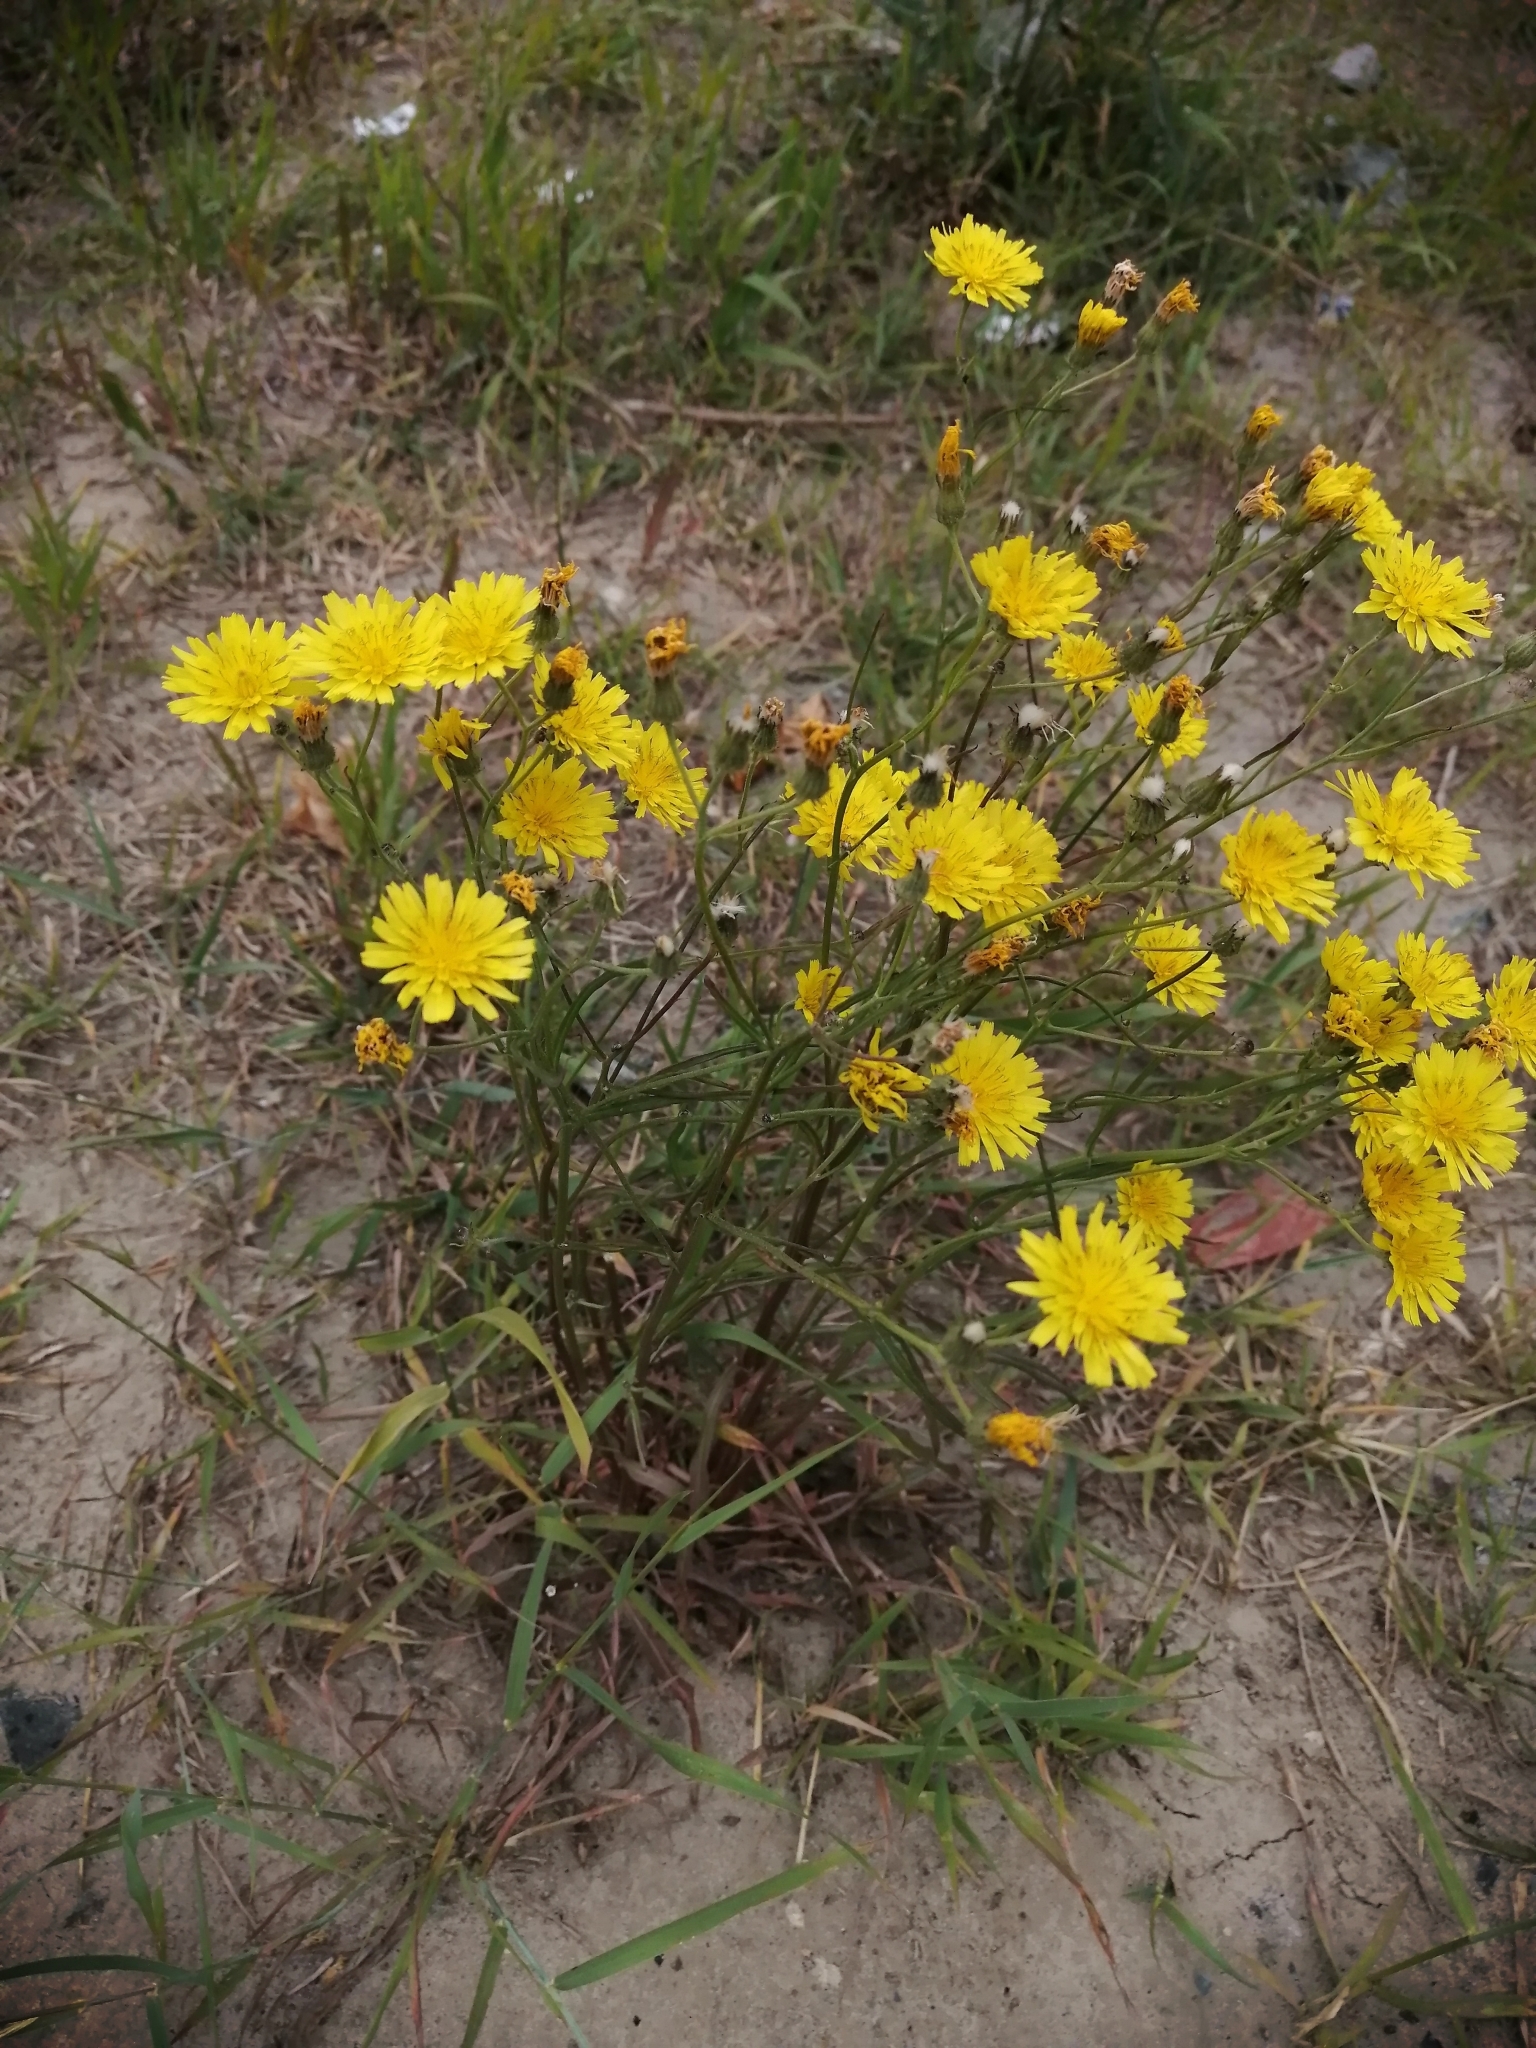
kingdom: Plantae
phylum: Tracheophyta
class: Magnoliopsida
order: Asterales
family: Asteraceae
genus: Crepis
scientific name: Crepis tectorum
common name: Narrow-leaved hawk's-beard
